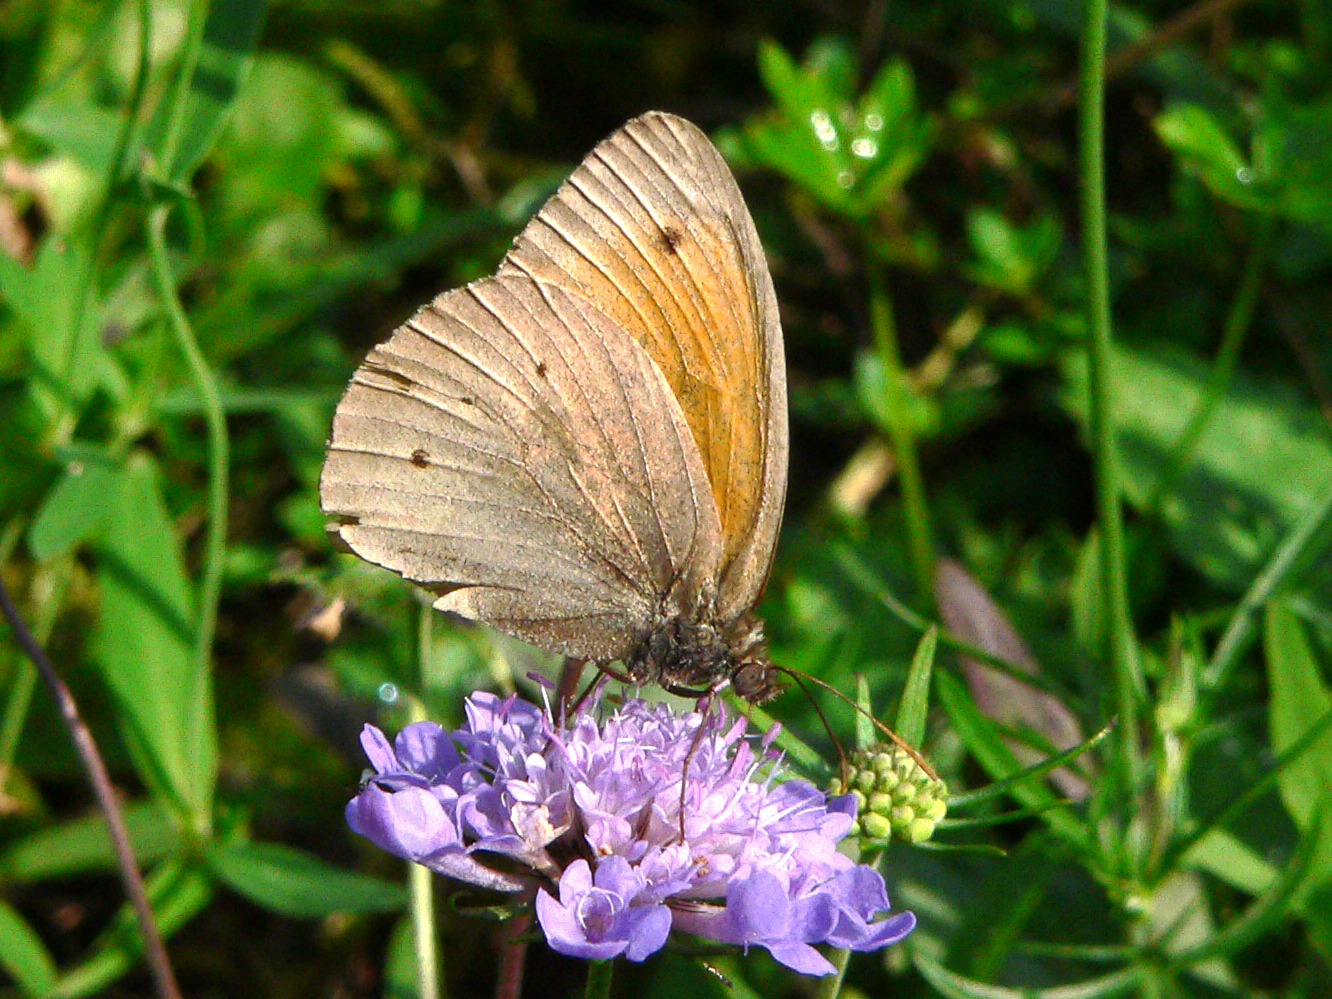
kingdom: Animalia
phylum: Arthropoda
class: Insecta
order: Lepidoptera
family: Nymphalidae
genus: Maniola
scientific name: Maniola jurtina
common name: Meadow brown
